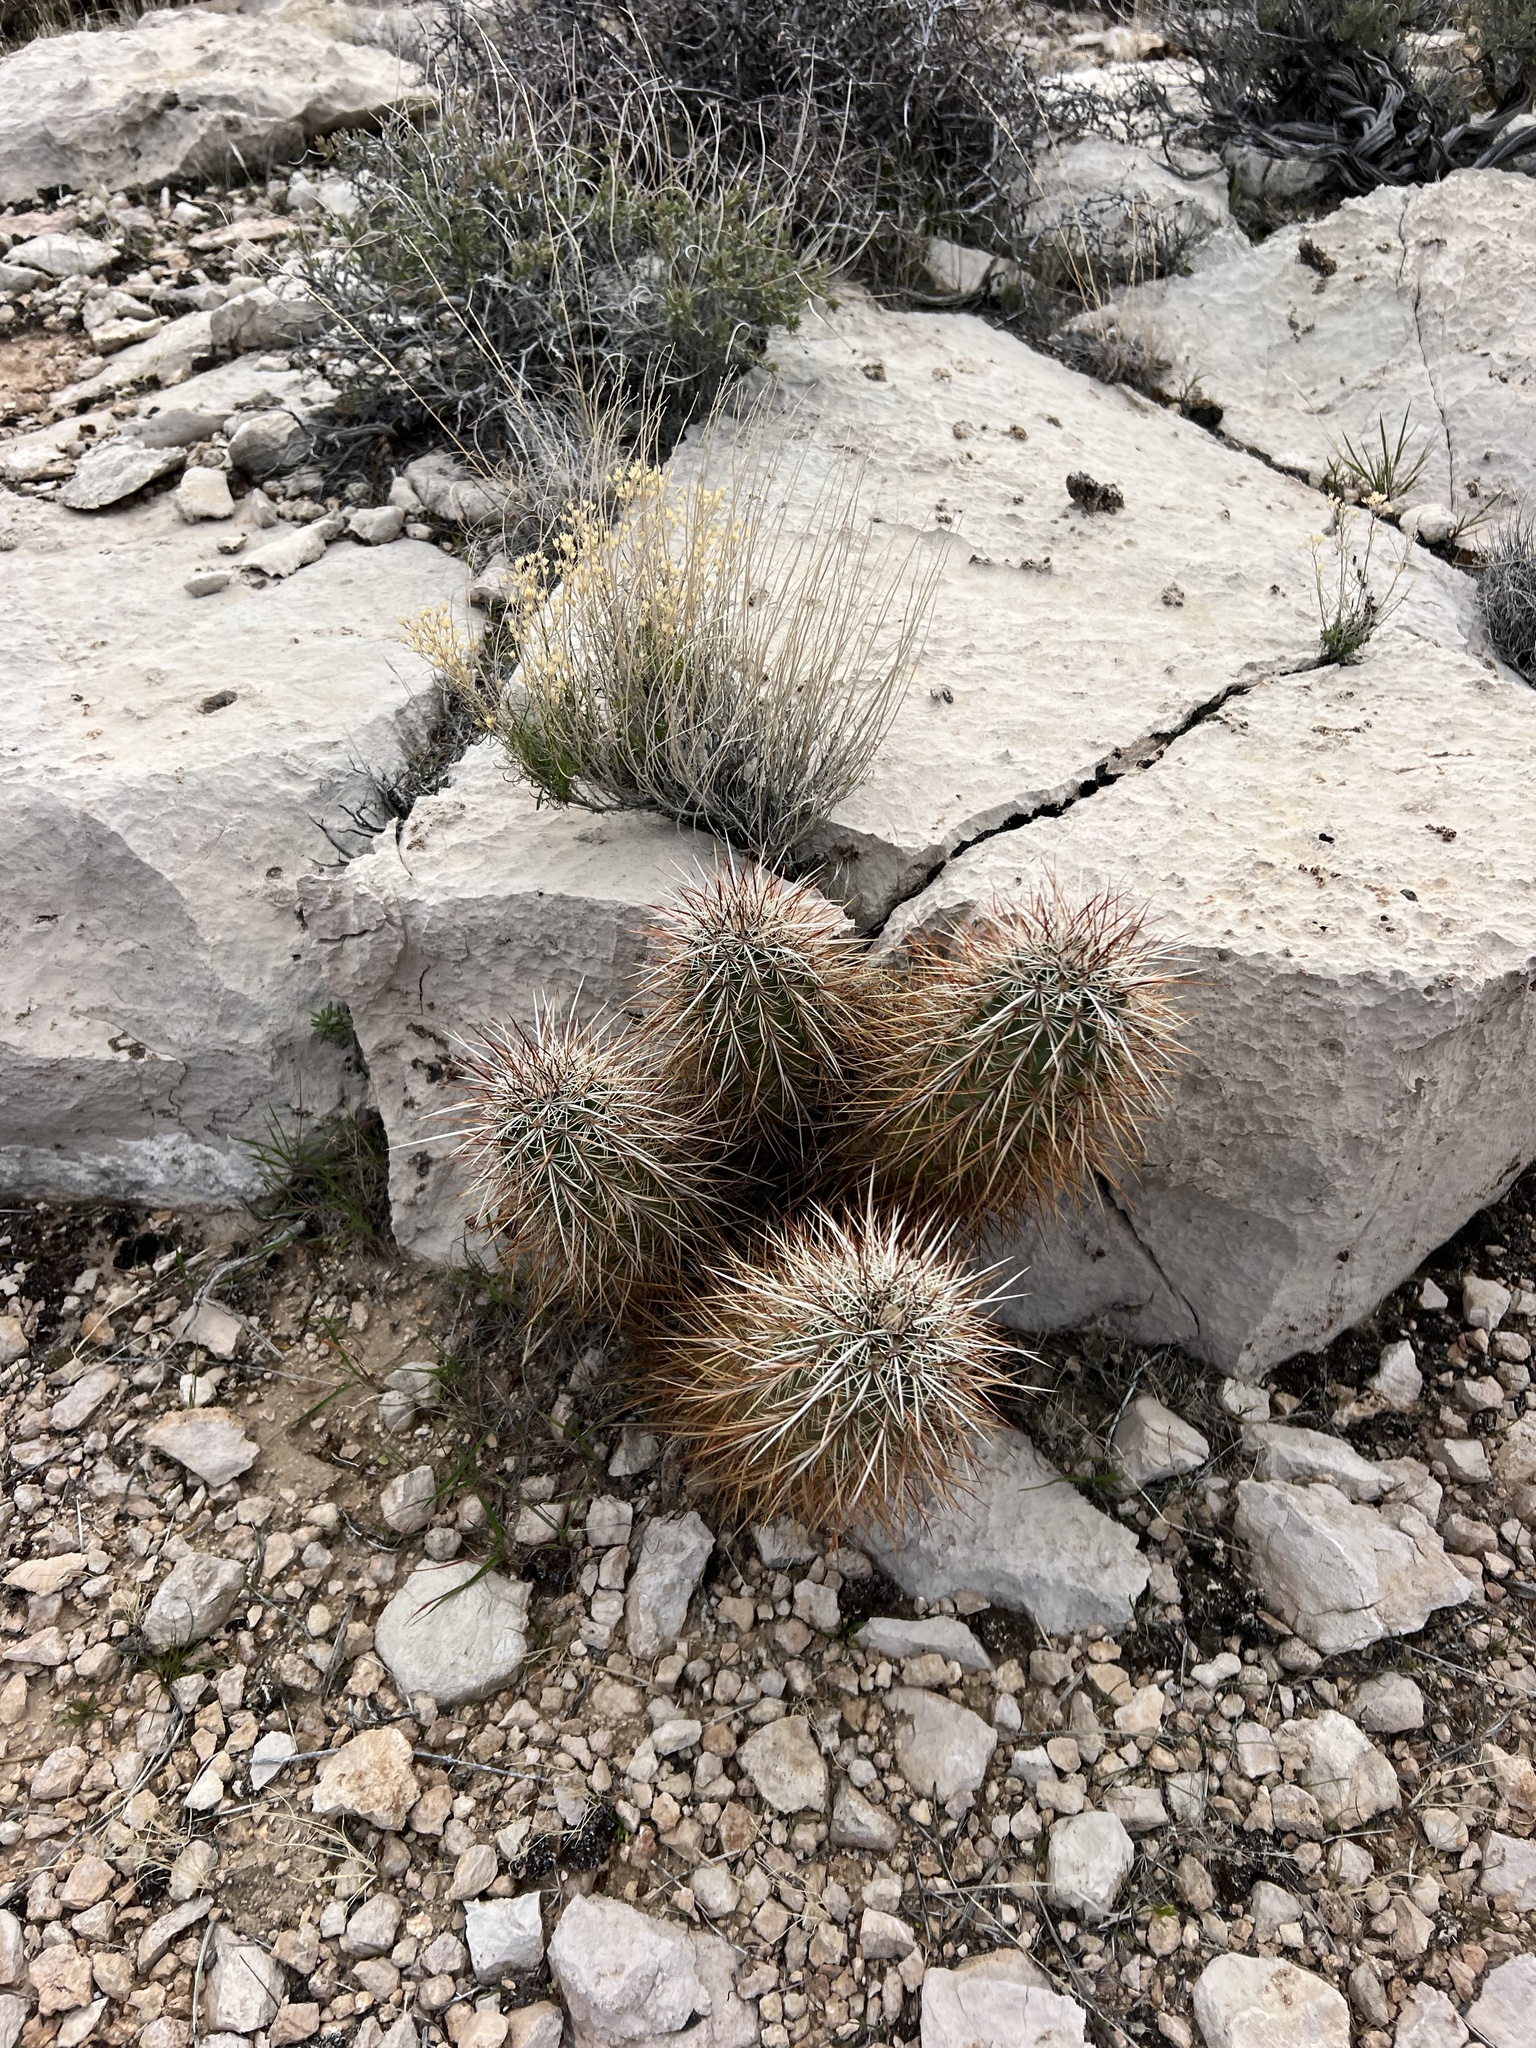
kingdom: Plantae
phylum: Tracheophyta
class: Magnoliopsida
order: Caryophyllales
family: Cactaceae
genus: Echinocereus
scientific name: Echinocereus engelmannii
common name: Engelmann's hedgehog cactus
